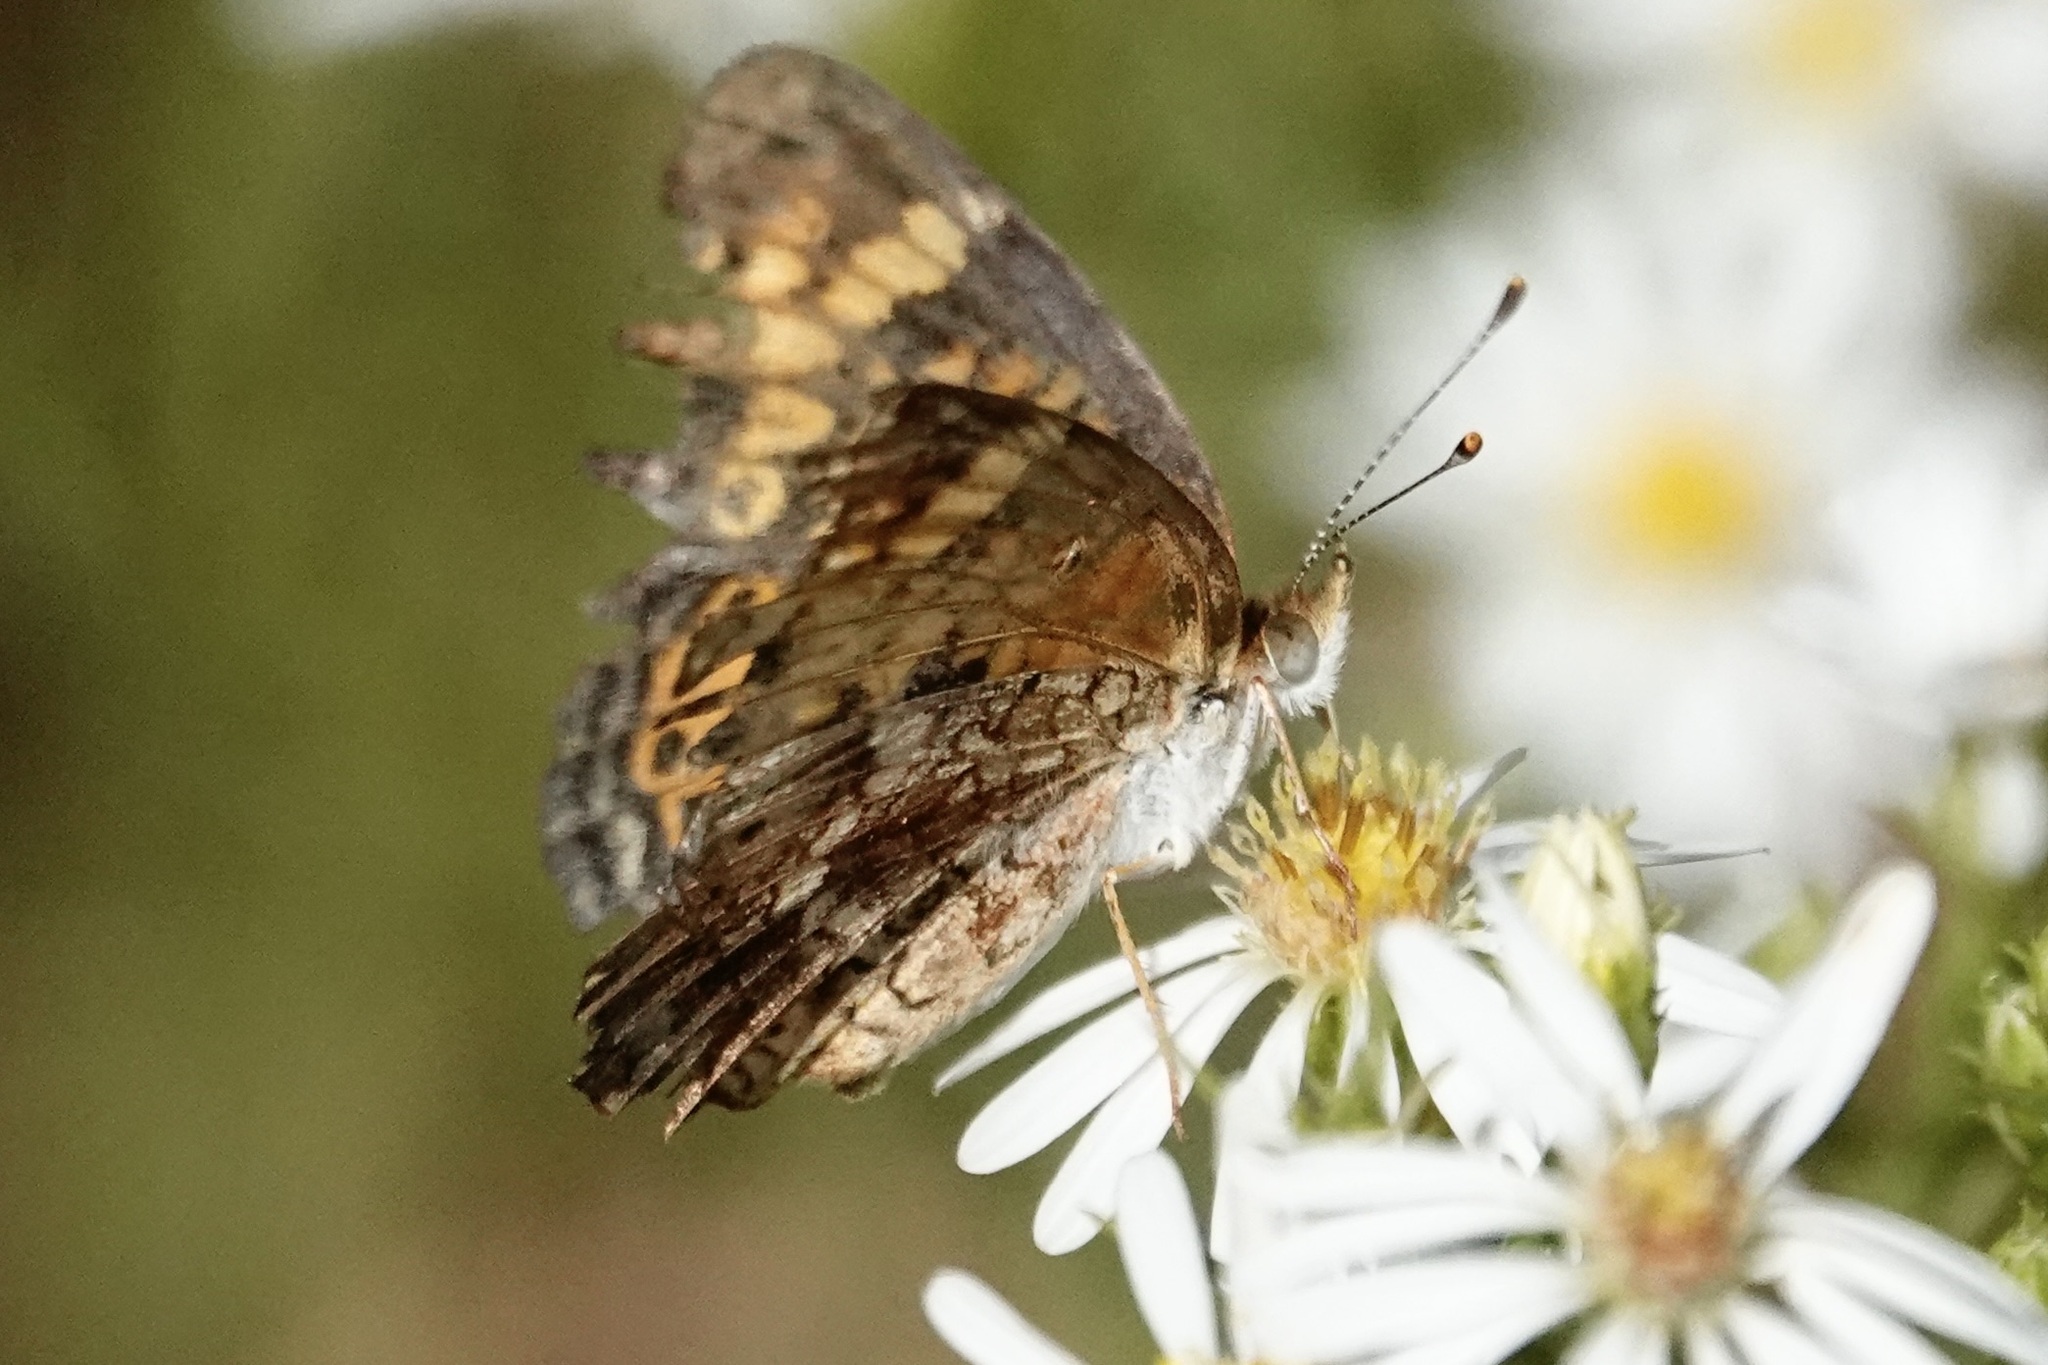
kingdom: Animalia
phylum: Arthropoda
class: Insecta
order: Lepidoptera
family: Nymphalidae
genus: Phyciodes
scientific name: Phyciodes tharos
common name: Pearl crescent
